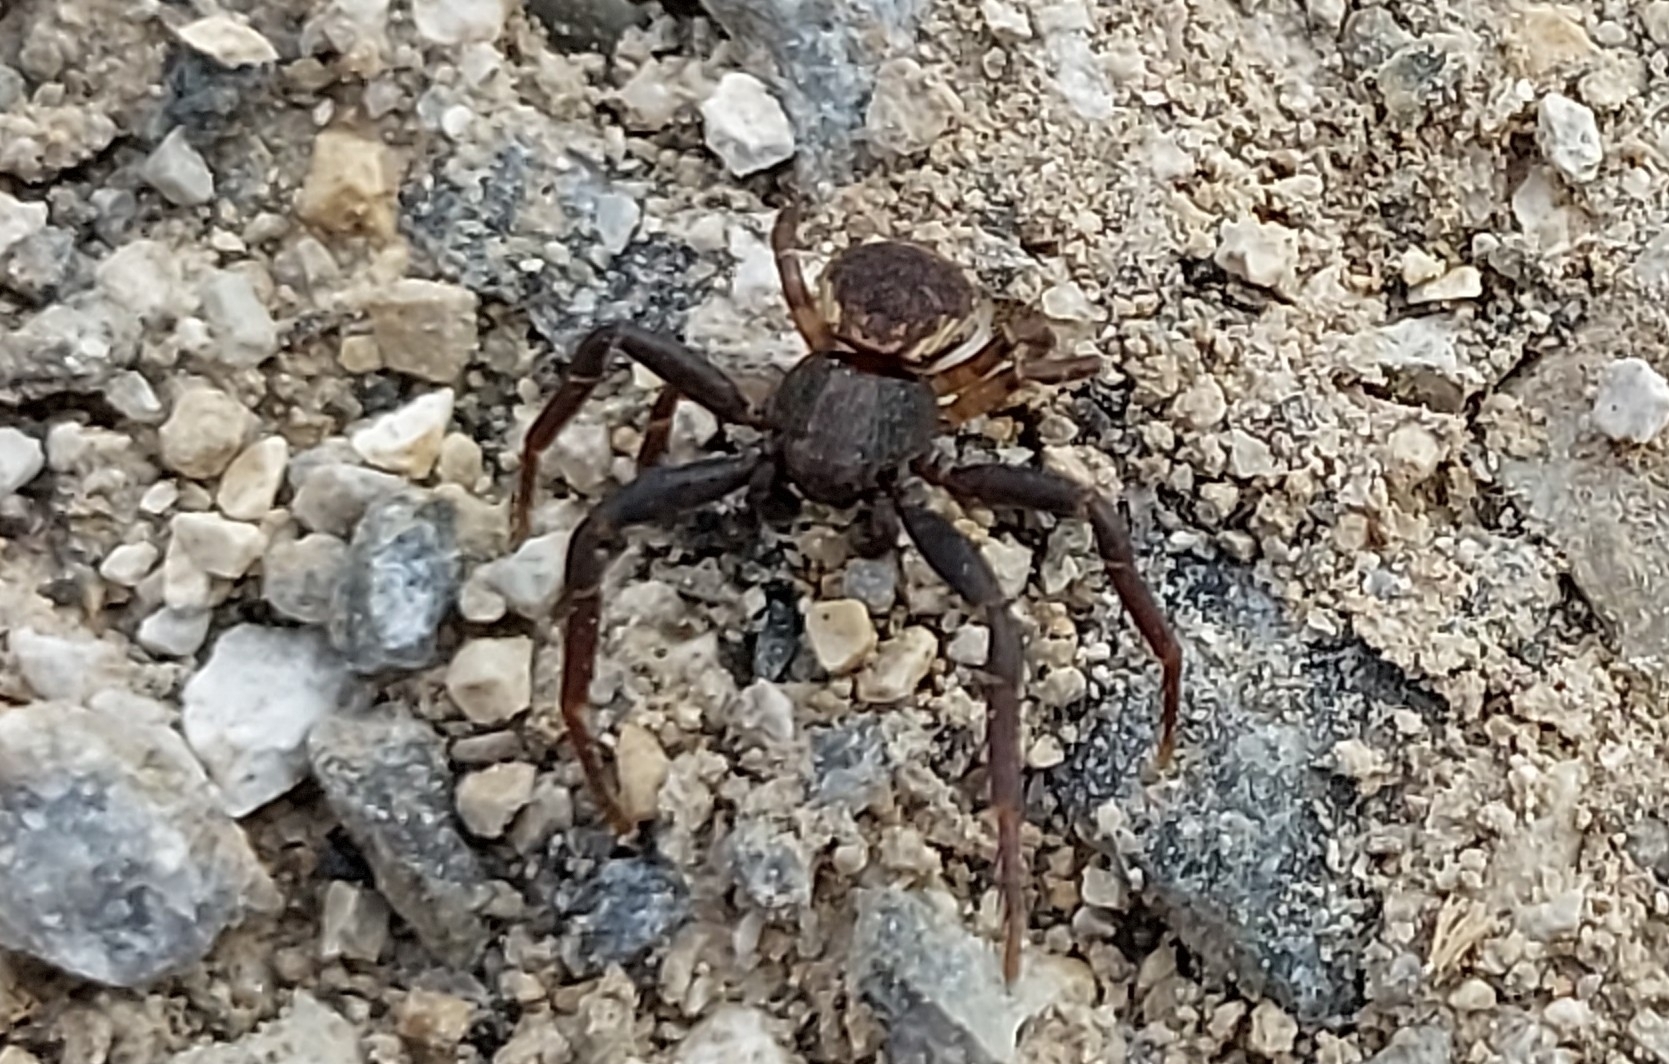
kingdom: Animalia
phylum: Arthropoda
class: Arachnida
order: Araneae
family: Thomisidae
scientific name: Thomisidae
